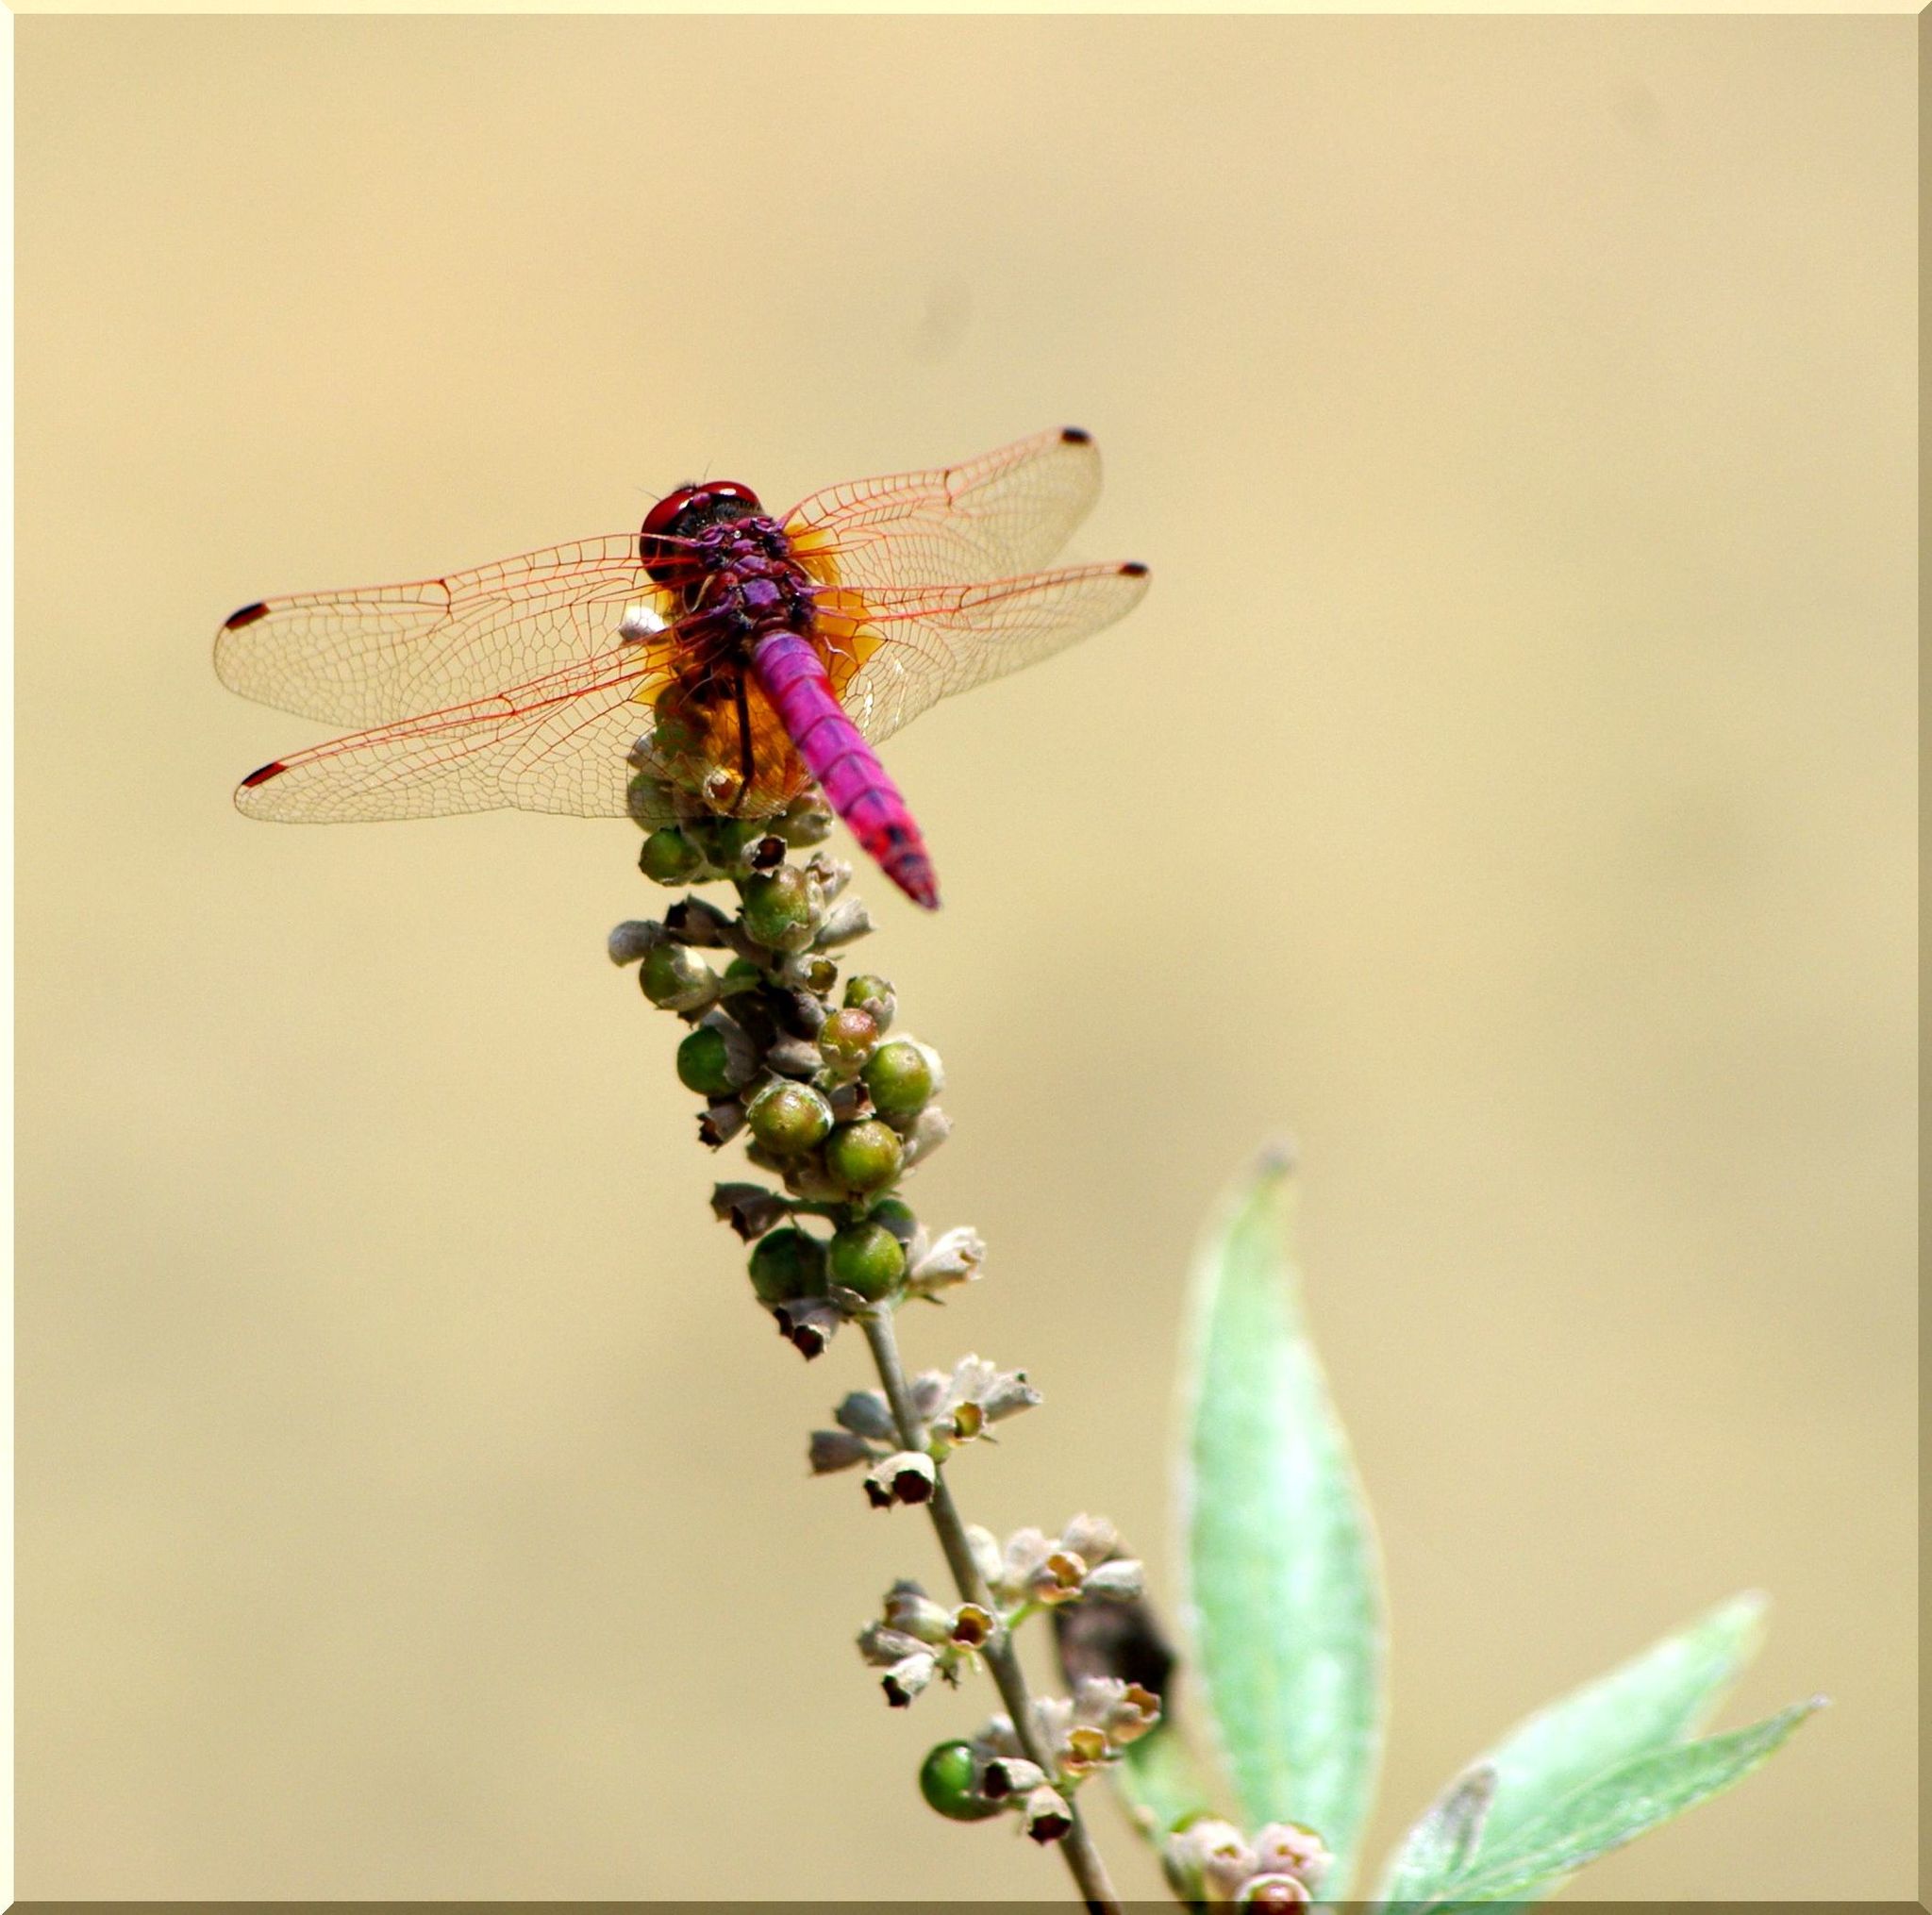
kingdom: Animalia
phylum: Arthropoda
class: Insecta
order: Odonata
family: Libellulidae
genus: Trithemis
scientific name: Trithemis annulata
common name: Violet dropwing
